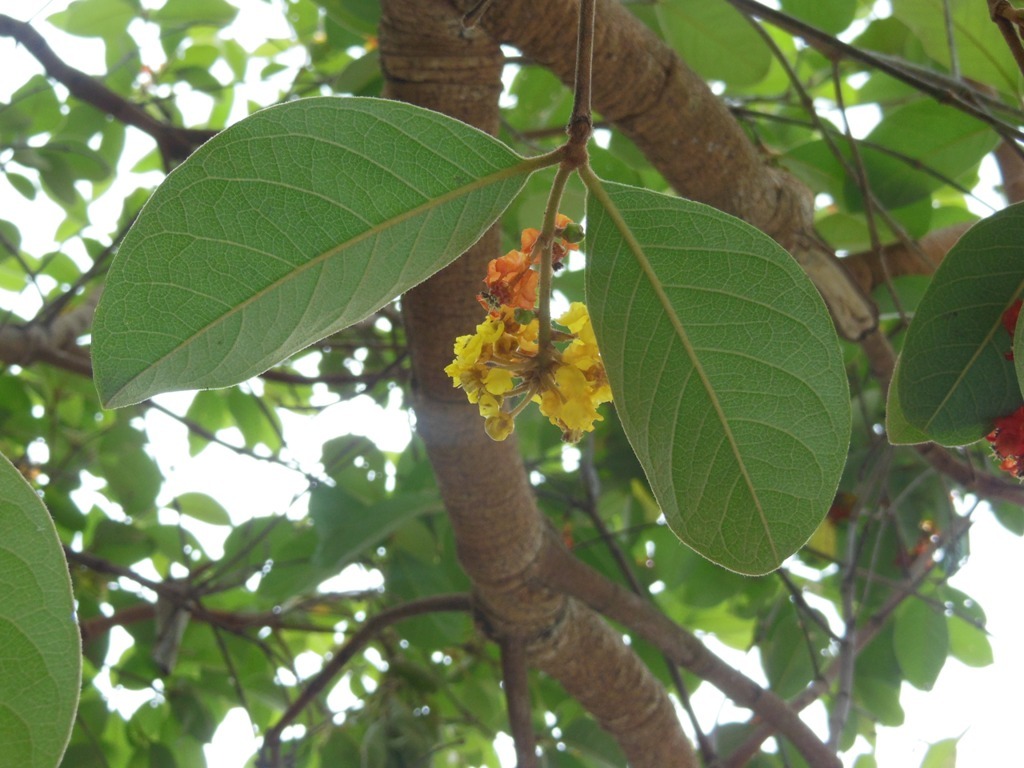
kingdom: Plantae
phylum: Tracheophyta
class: Magnoliopsida
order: Malpighiales
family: Malpighiaceae
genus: Byrsonima
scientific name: Byrsonima crassifolia
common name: Golden spoon
